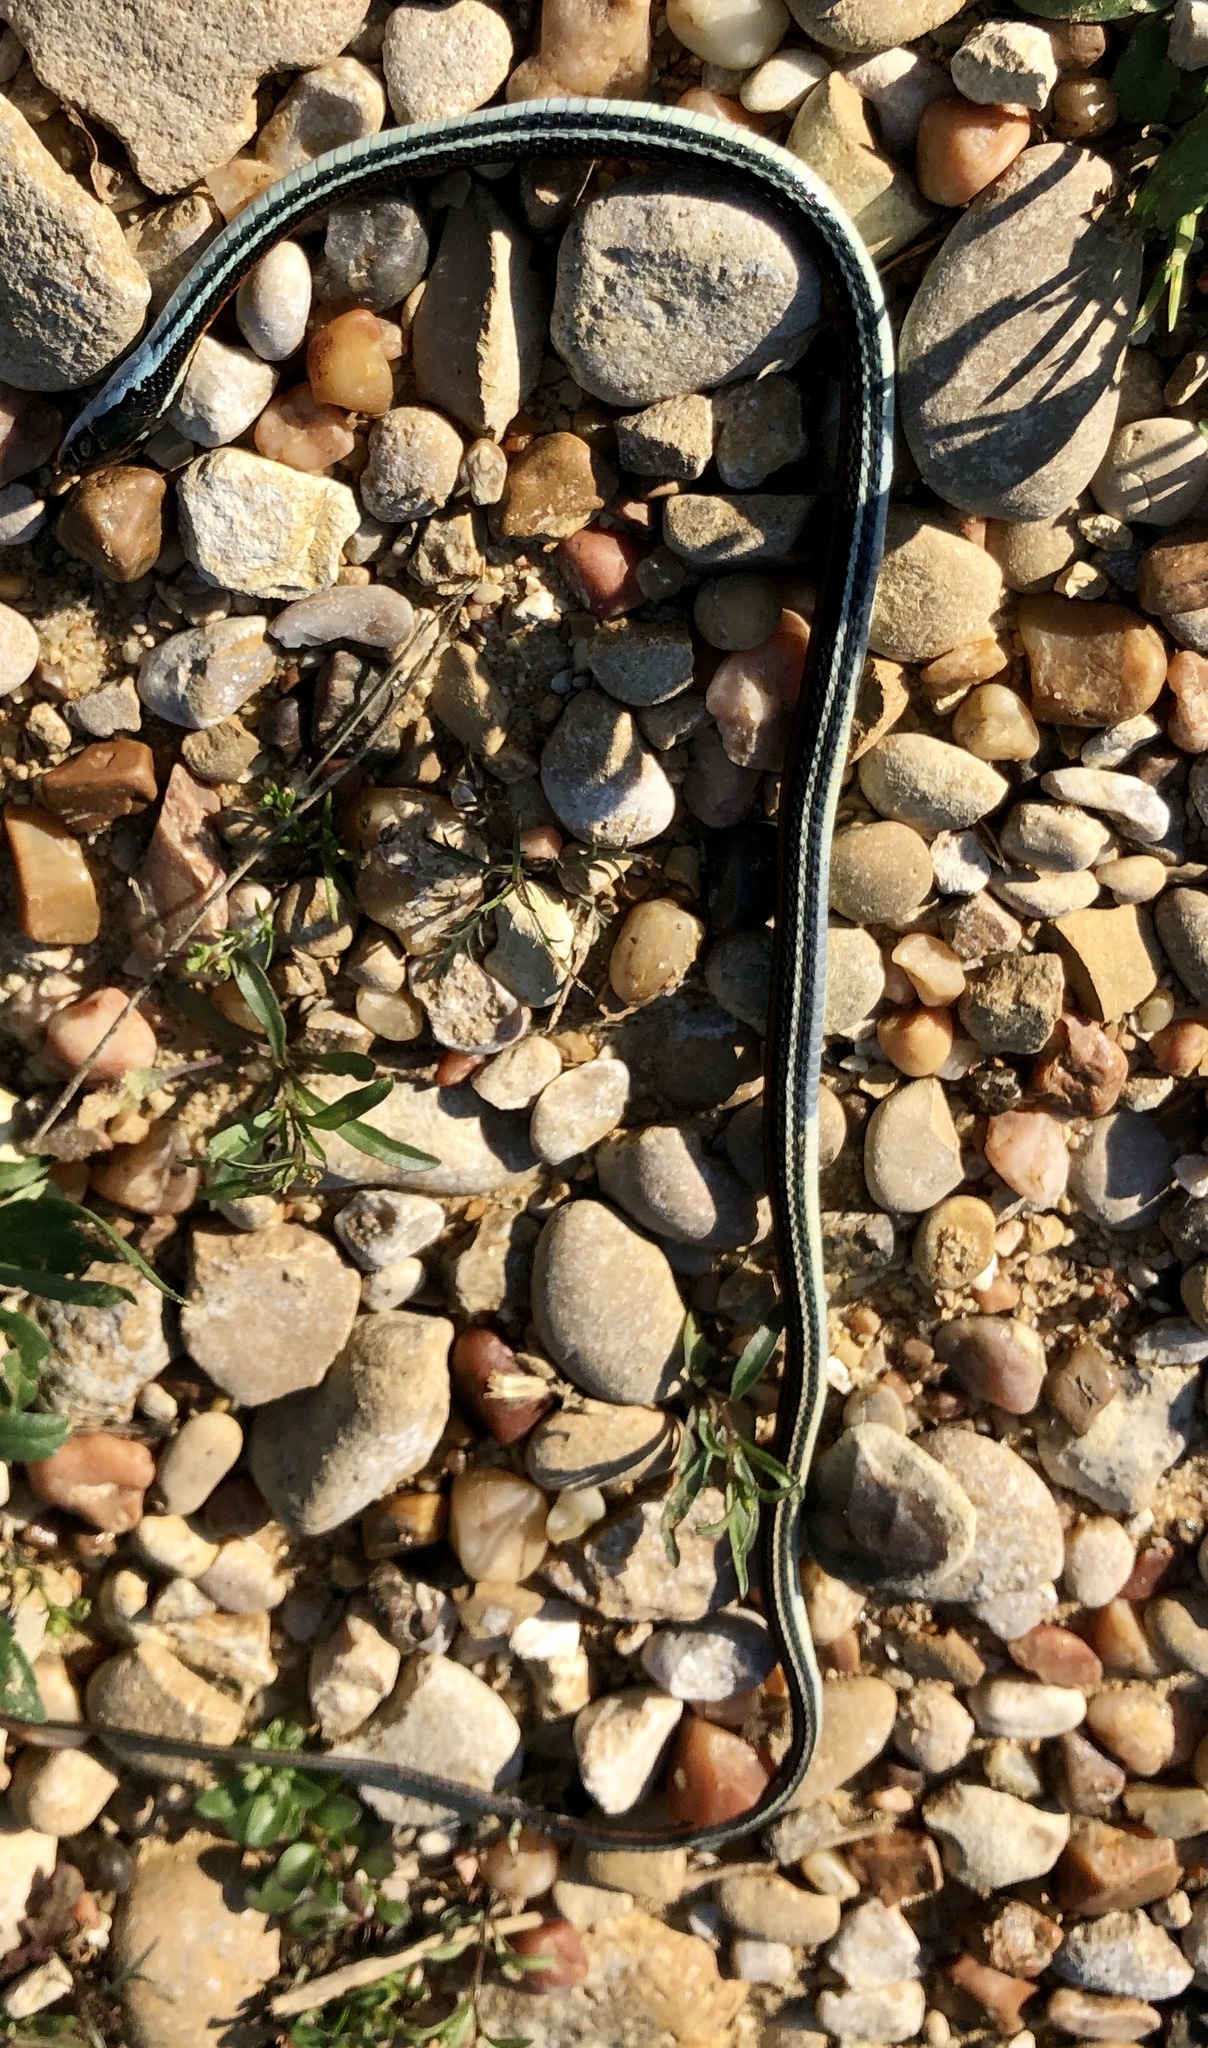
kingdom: Animalia
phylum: Chordata
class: Squamata
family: Colubridae
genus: Thamnophis
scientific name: Thamnophis proximus
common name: Western ribbon snake
